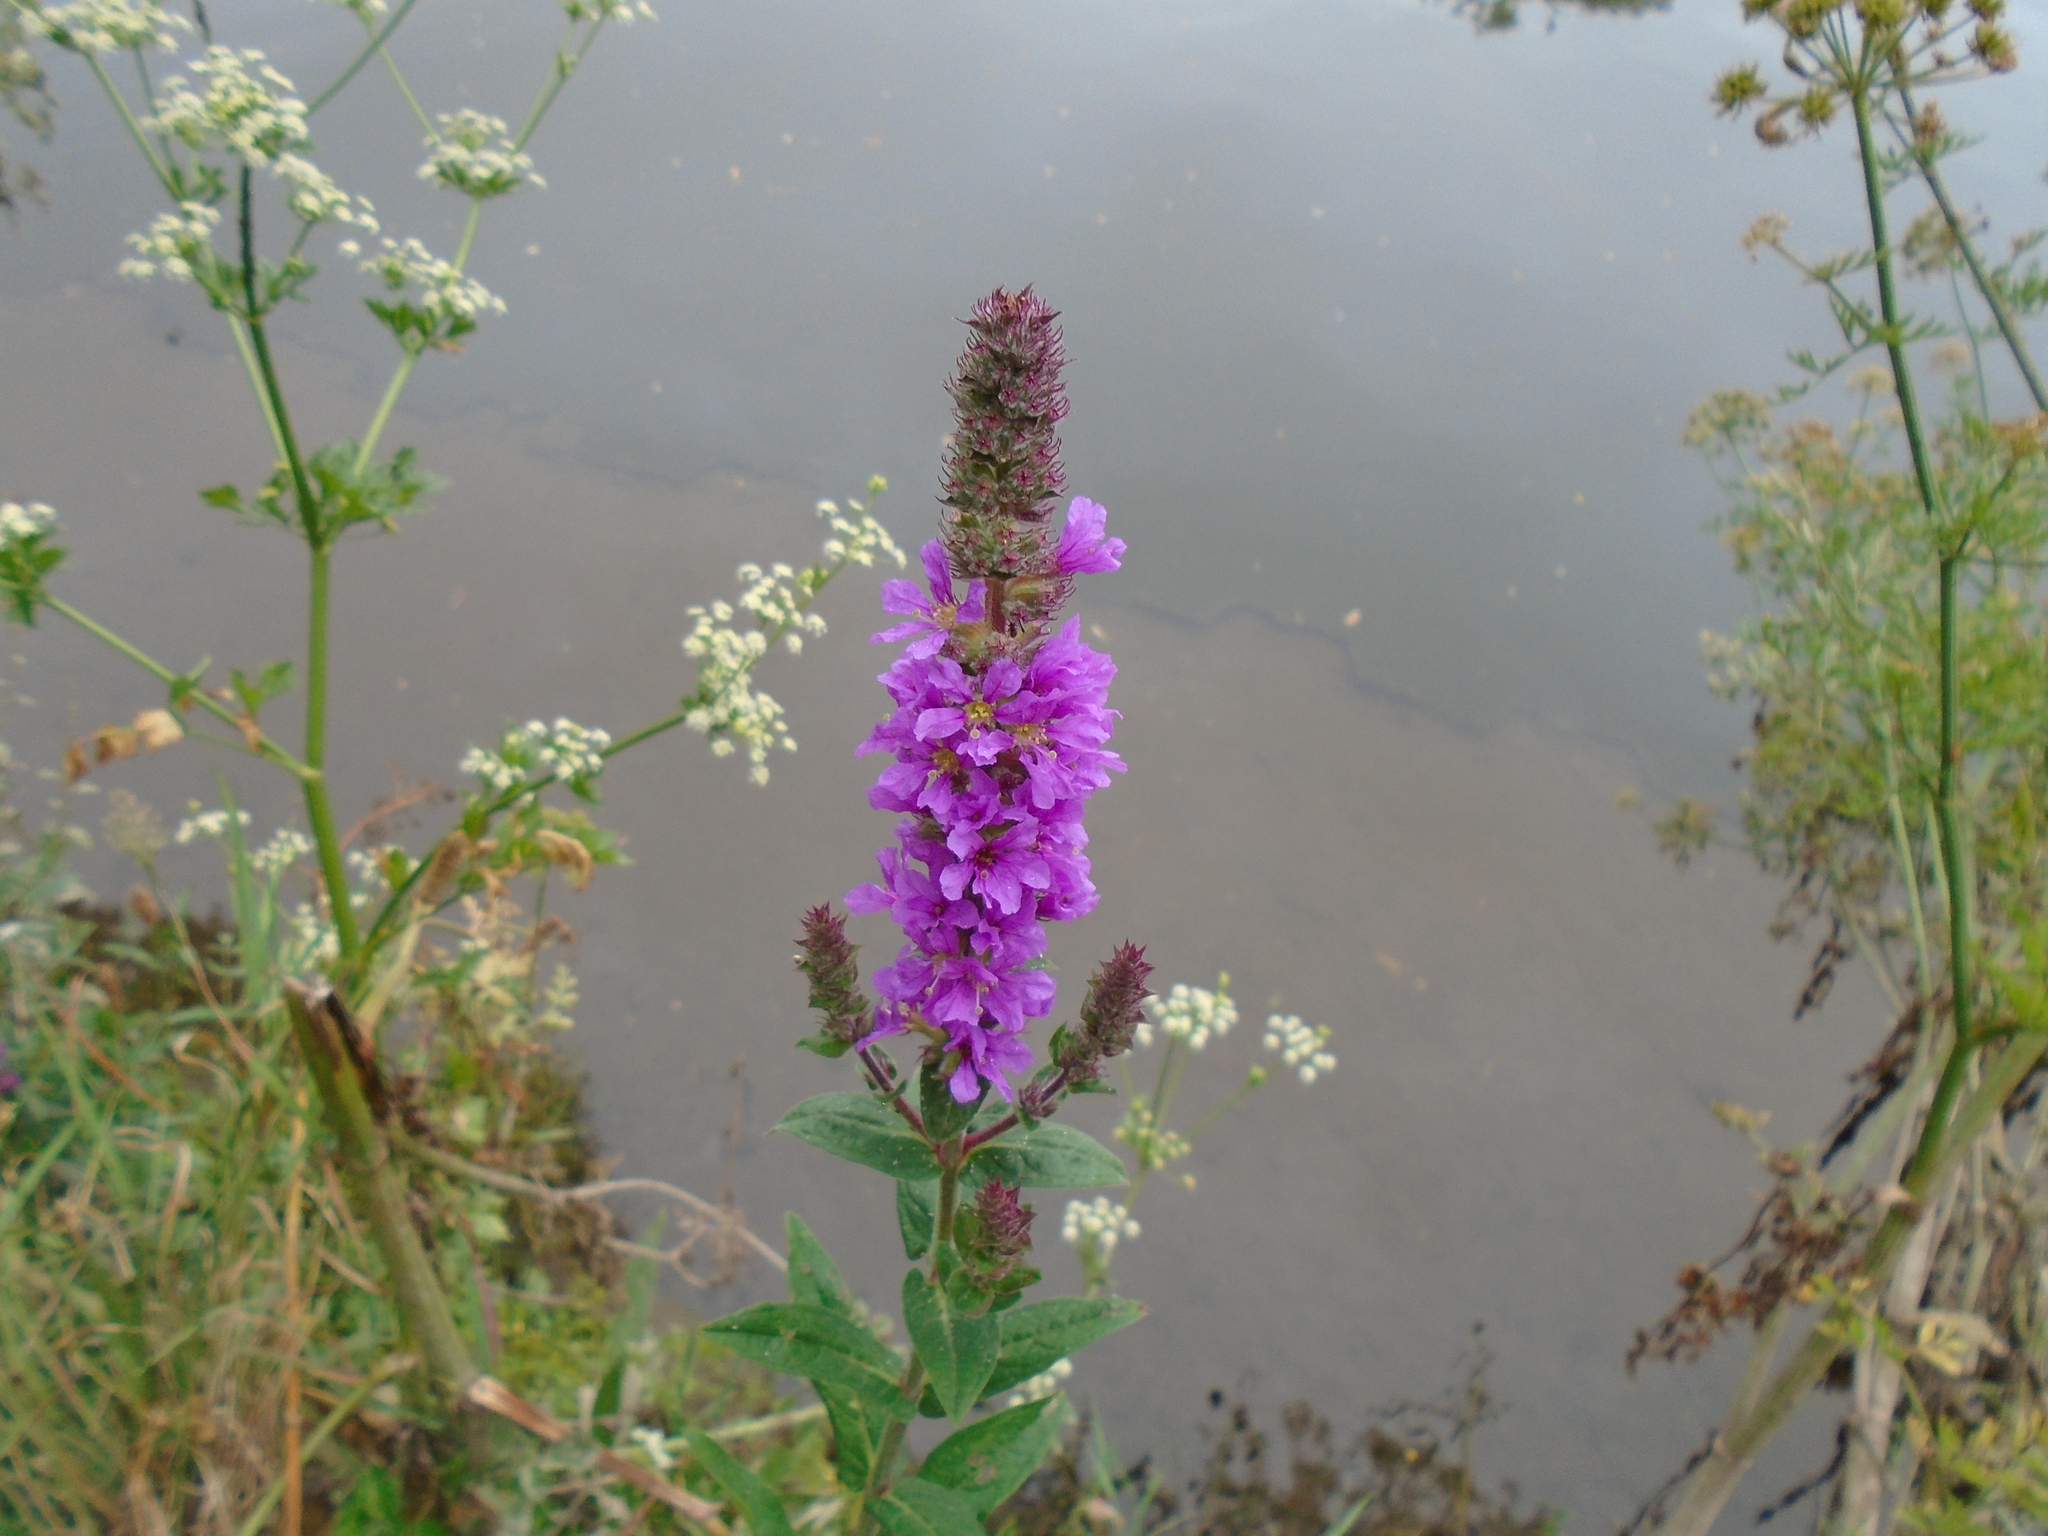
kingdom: Plantae
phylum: Tracheophyta
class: Magnoliopsida
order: Myrtales
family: Lythraceae
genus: Lythrum
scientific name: Lythrum salicaria
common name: Purple loosestrife
